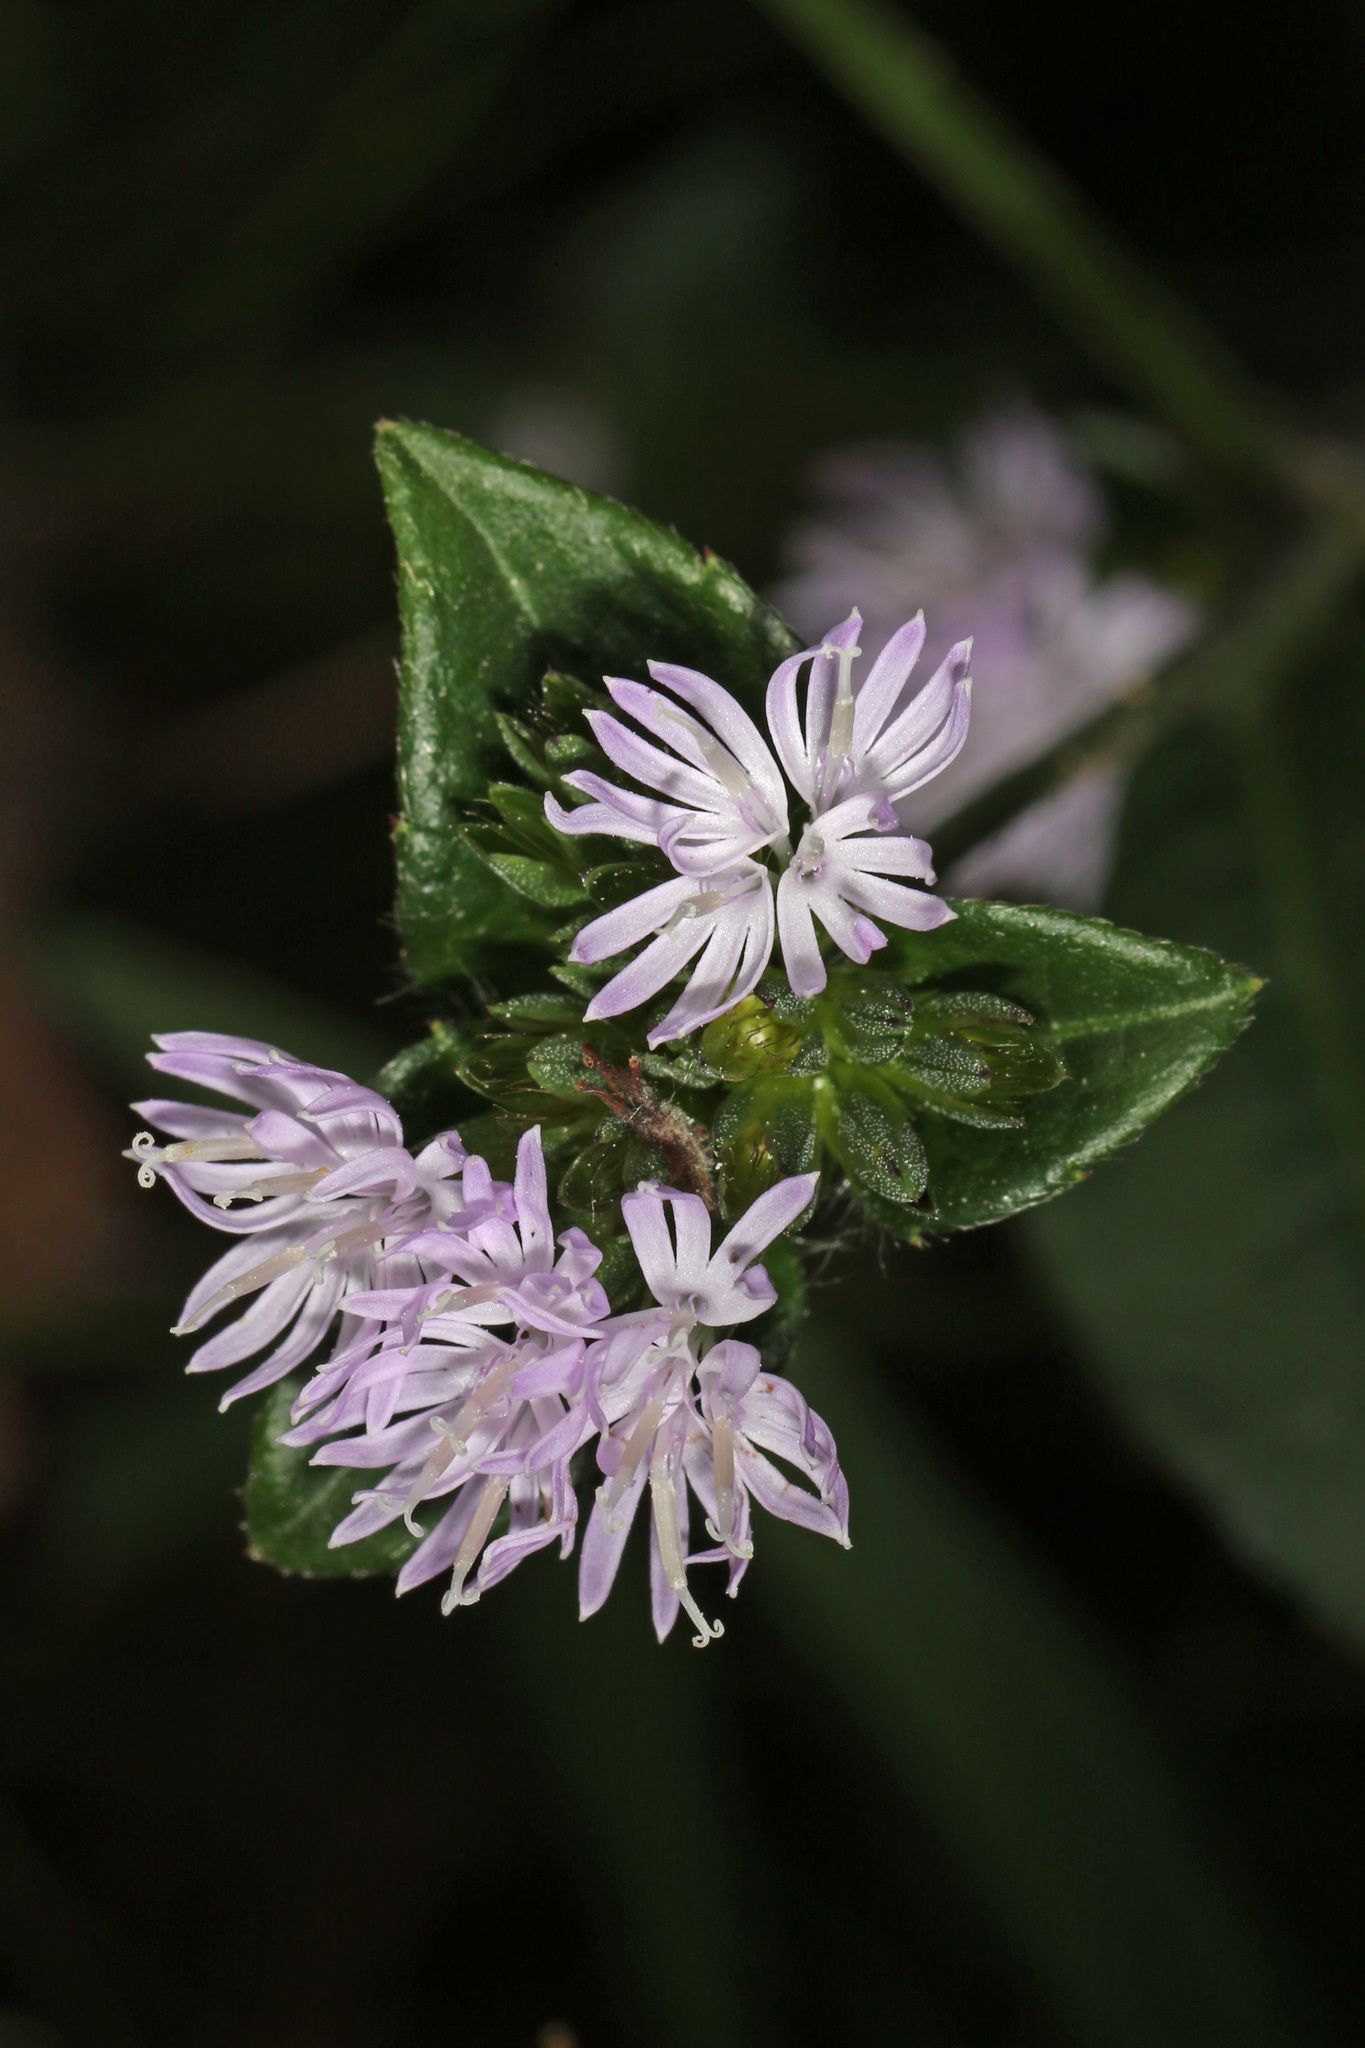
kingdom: Plantae
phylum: Tracheophyta
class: Magnoliopsida
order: Asterales
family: Asteraceae
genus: Elephantopus
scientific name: Elephantopus carolinianus
